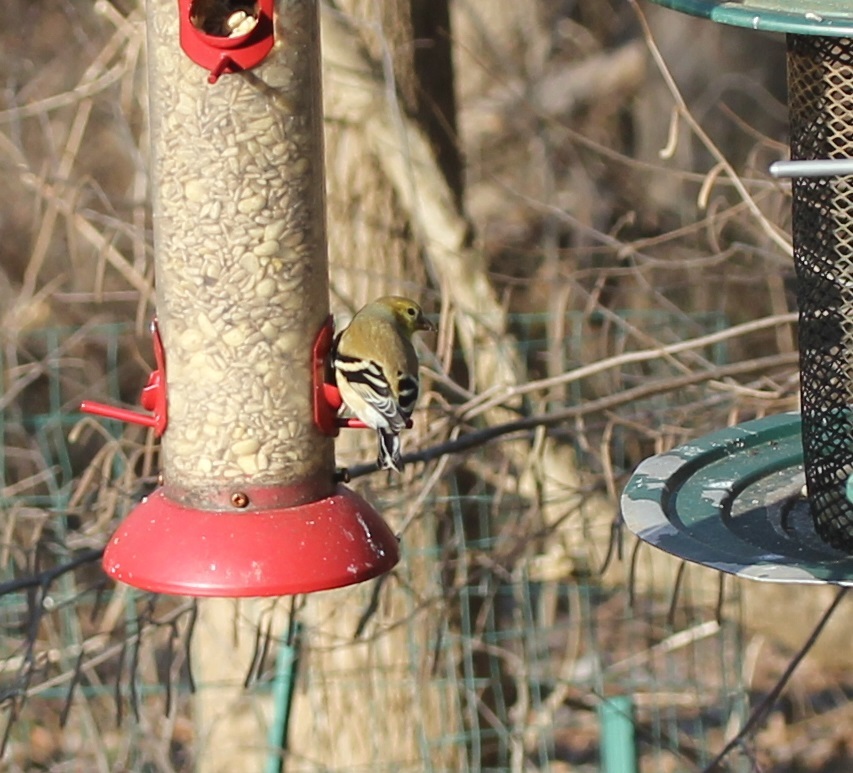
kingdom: Animalia
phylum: Chordata
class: Aves
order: Passeriformes
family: Fringillidae
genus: Spinus
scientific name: Spinus tristis
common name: American goldfinch
